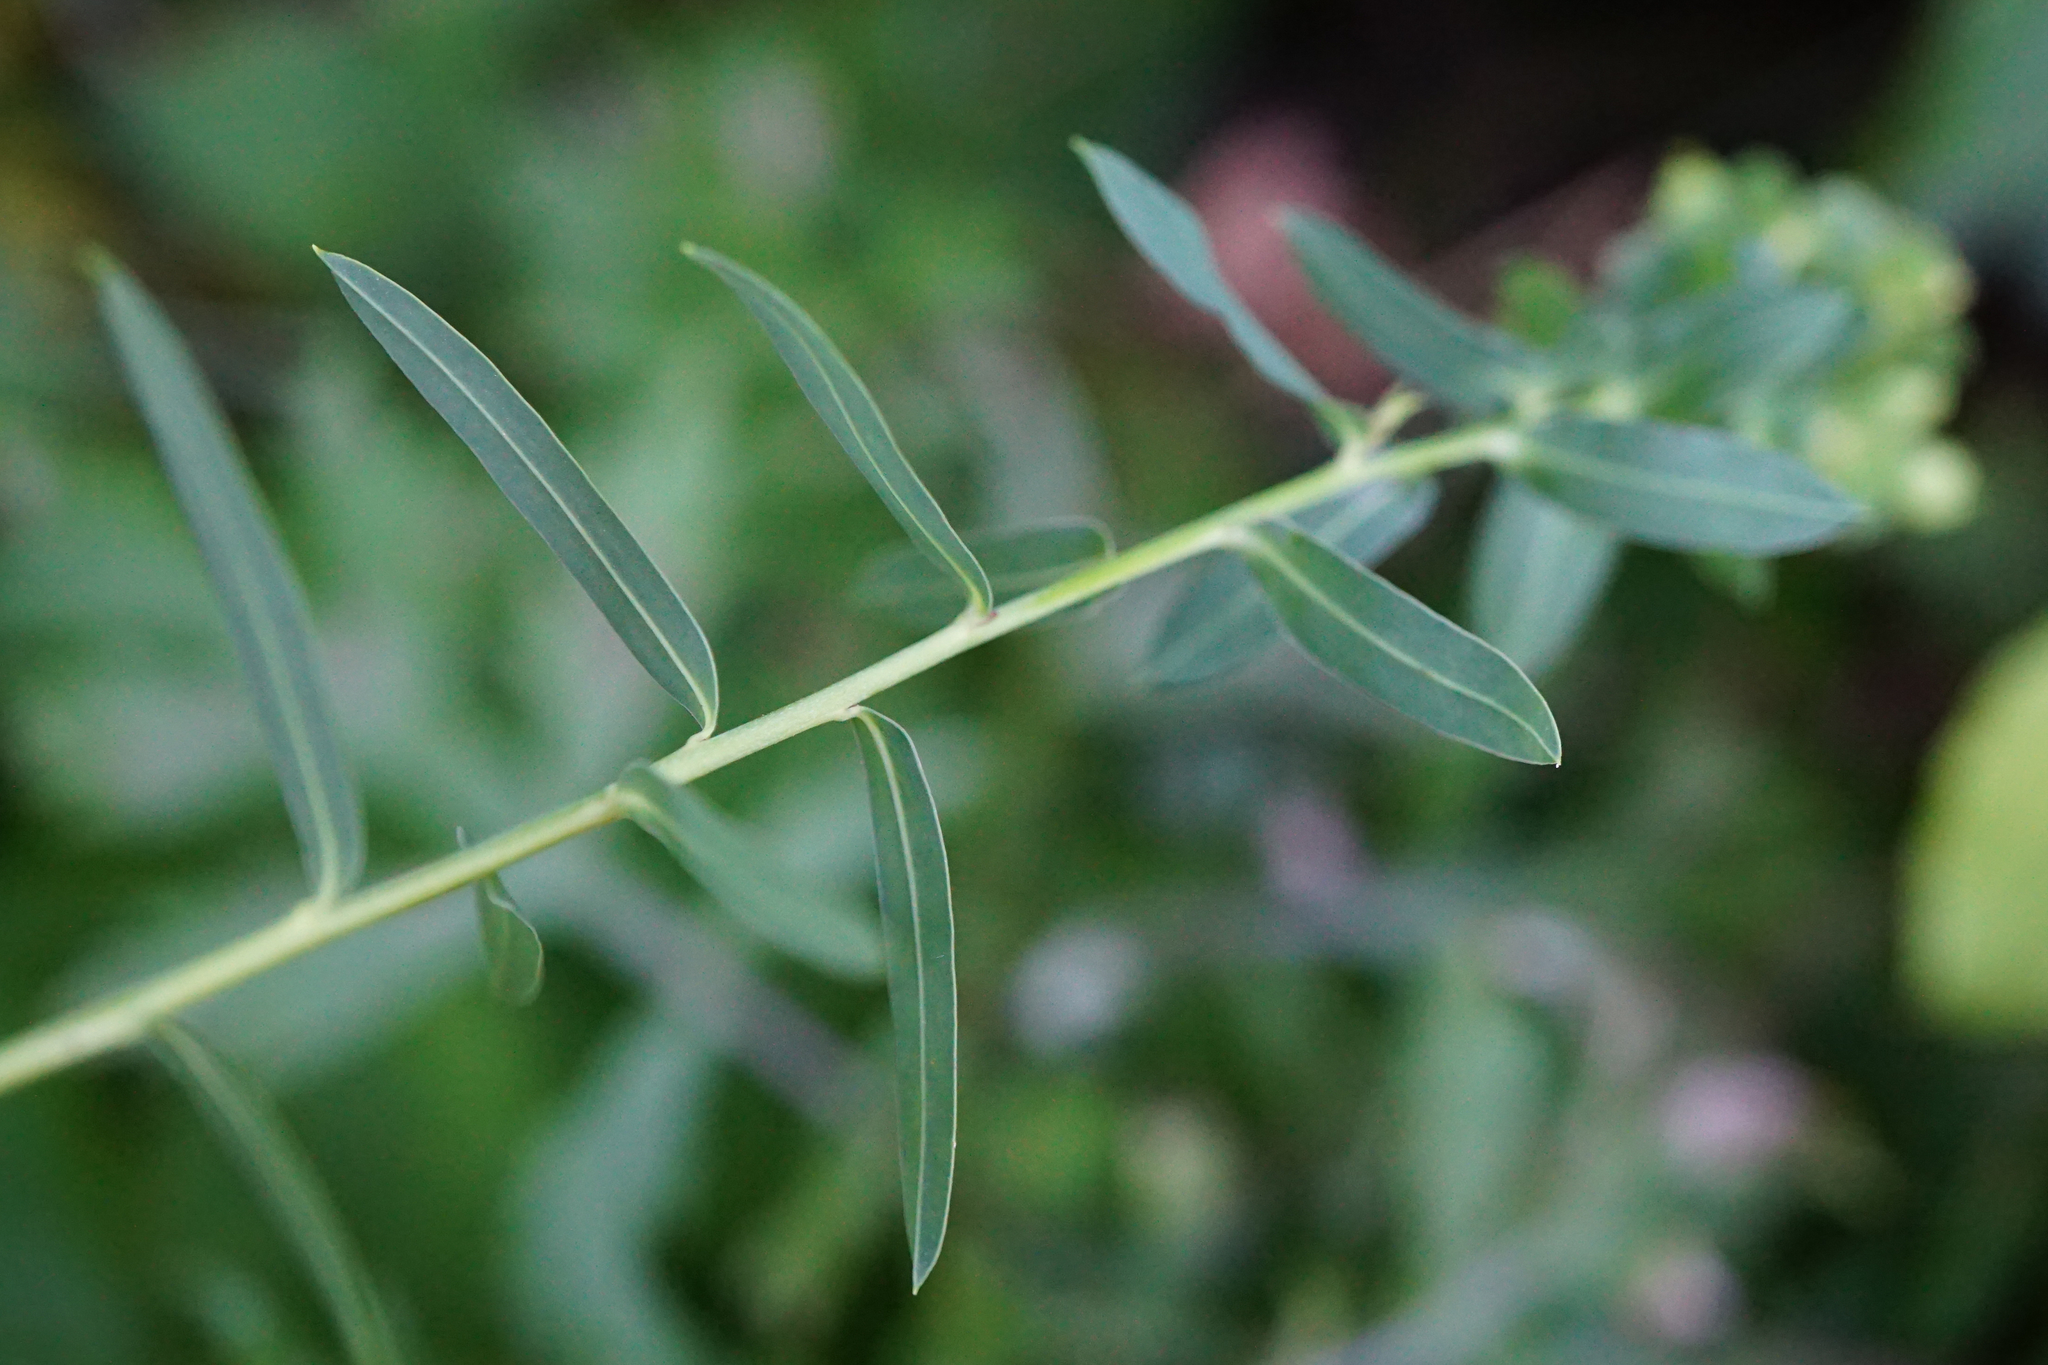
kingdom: Plantae
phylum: Tracheophyta
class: Magnoliopsida
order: Malpighiales
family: Euphorbiaceae
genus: Euphorbia
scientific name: Euphorbia virgata
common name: Leafy spurge
